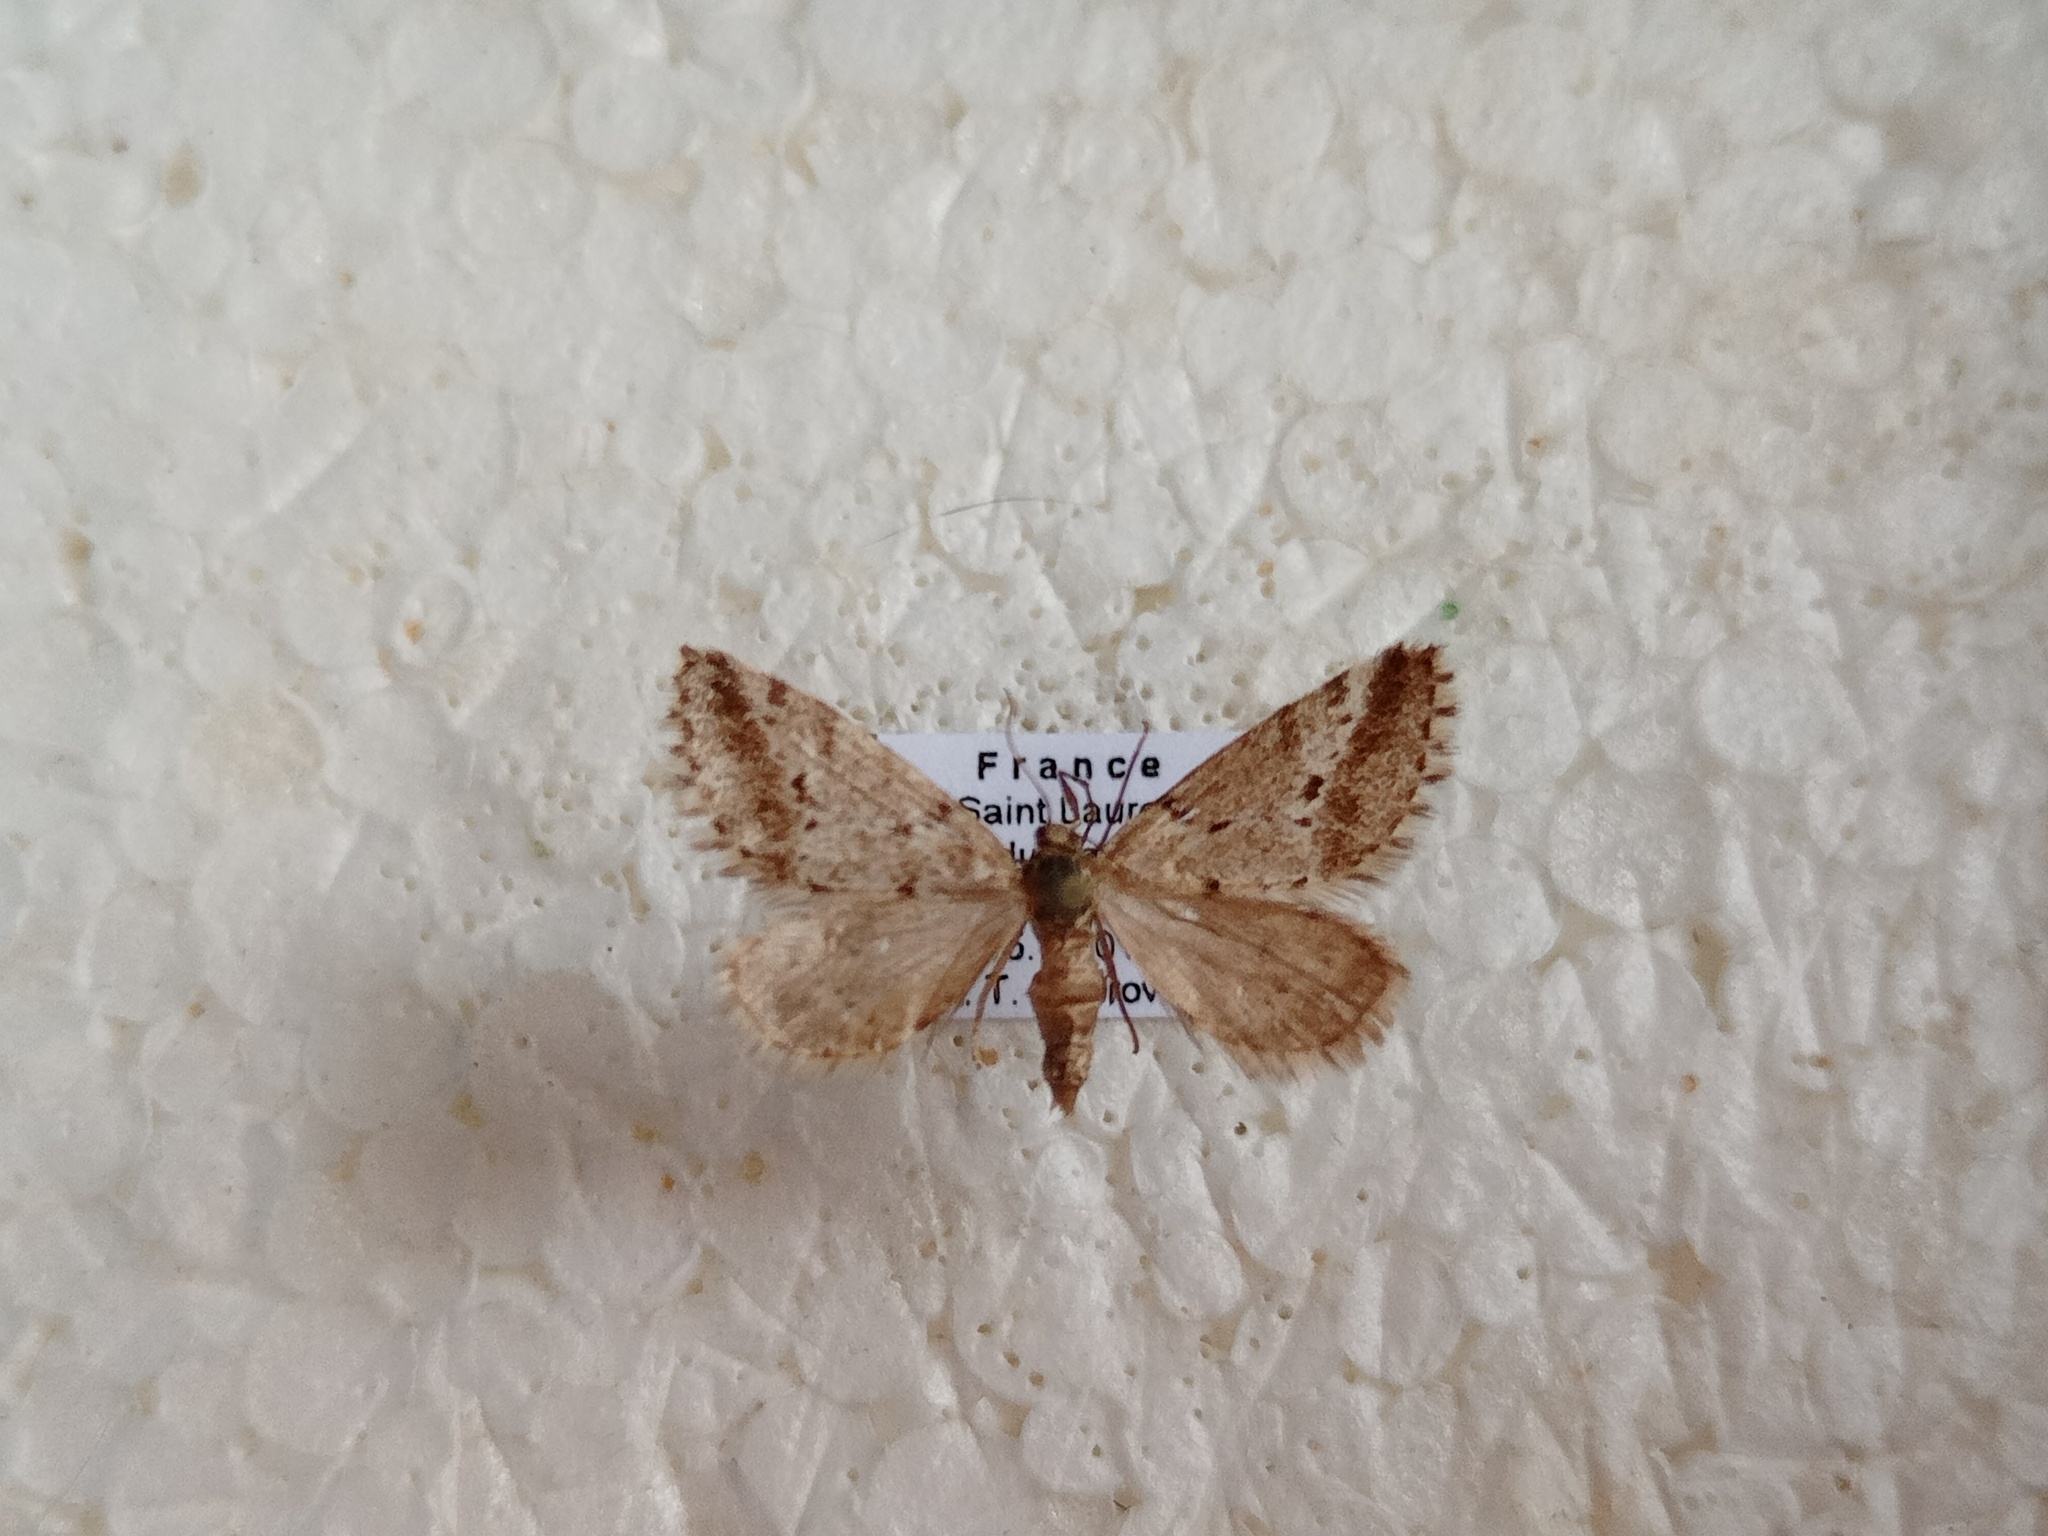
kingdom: Animalia
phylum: Arthropoda
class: Insecta
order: Lepidoptera
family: Geometridae
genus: Tephronia
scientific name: Tephronia oranaria
